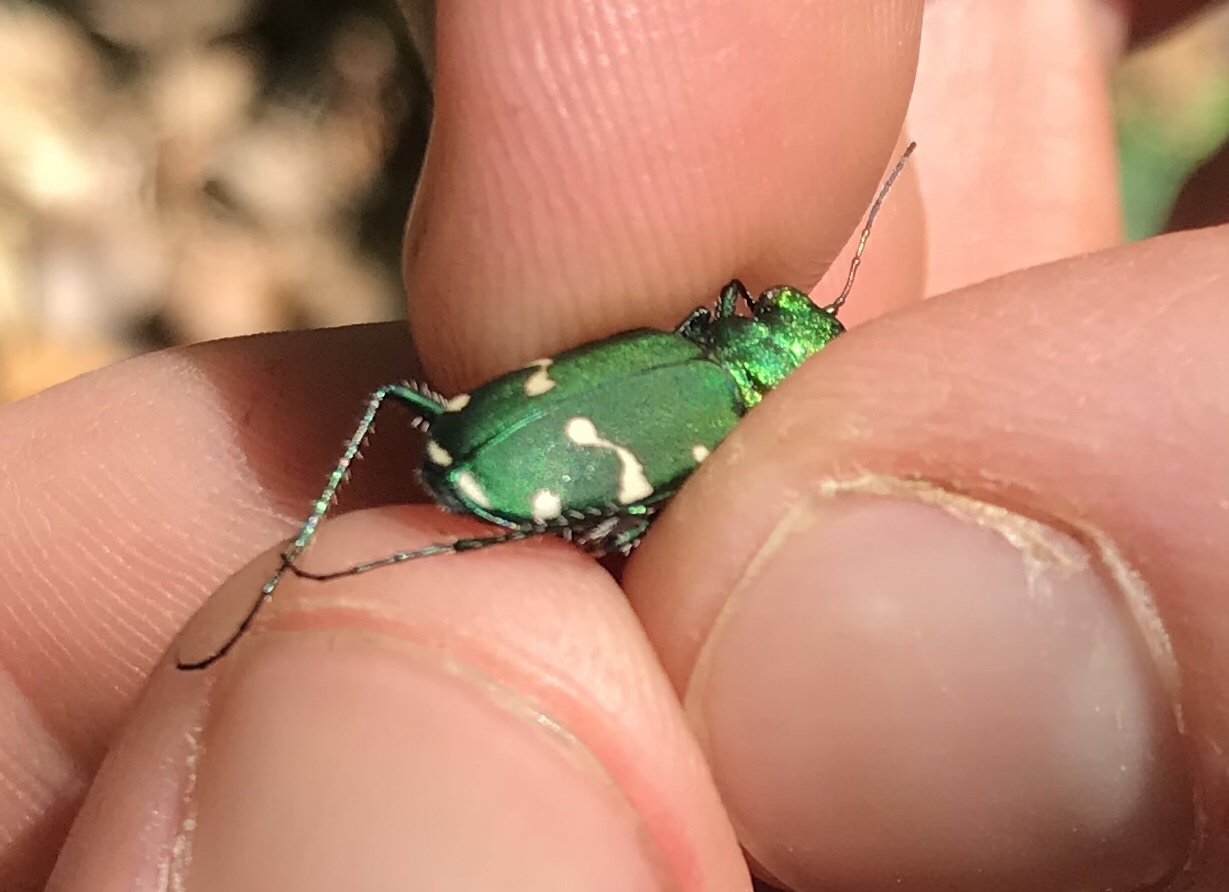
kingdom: Animalia
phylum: Arthropoda
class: Insecta
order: Coleoptera
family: Carabidae
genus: Cicindela
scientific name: Cicindela patruela
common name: Northern barrens tiger beetle
